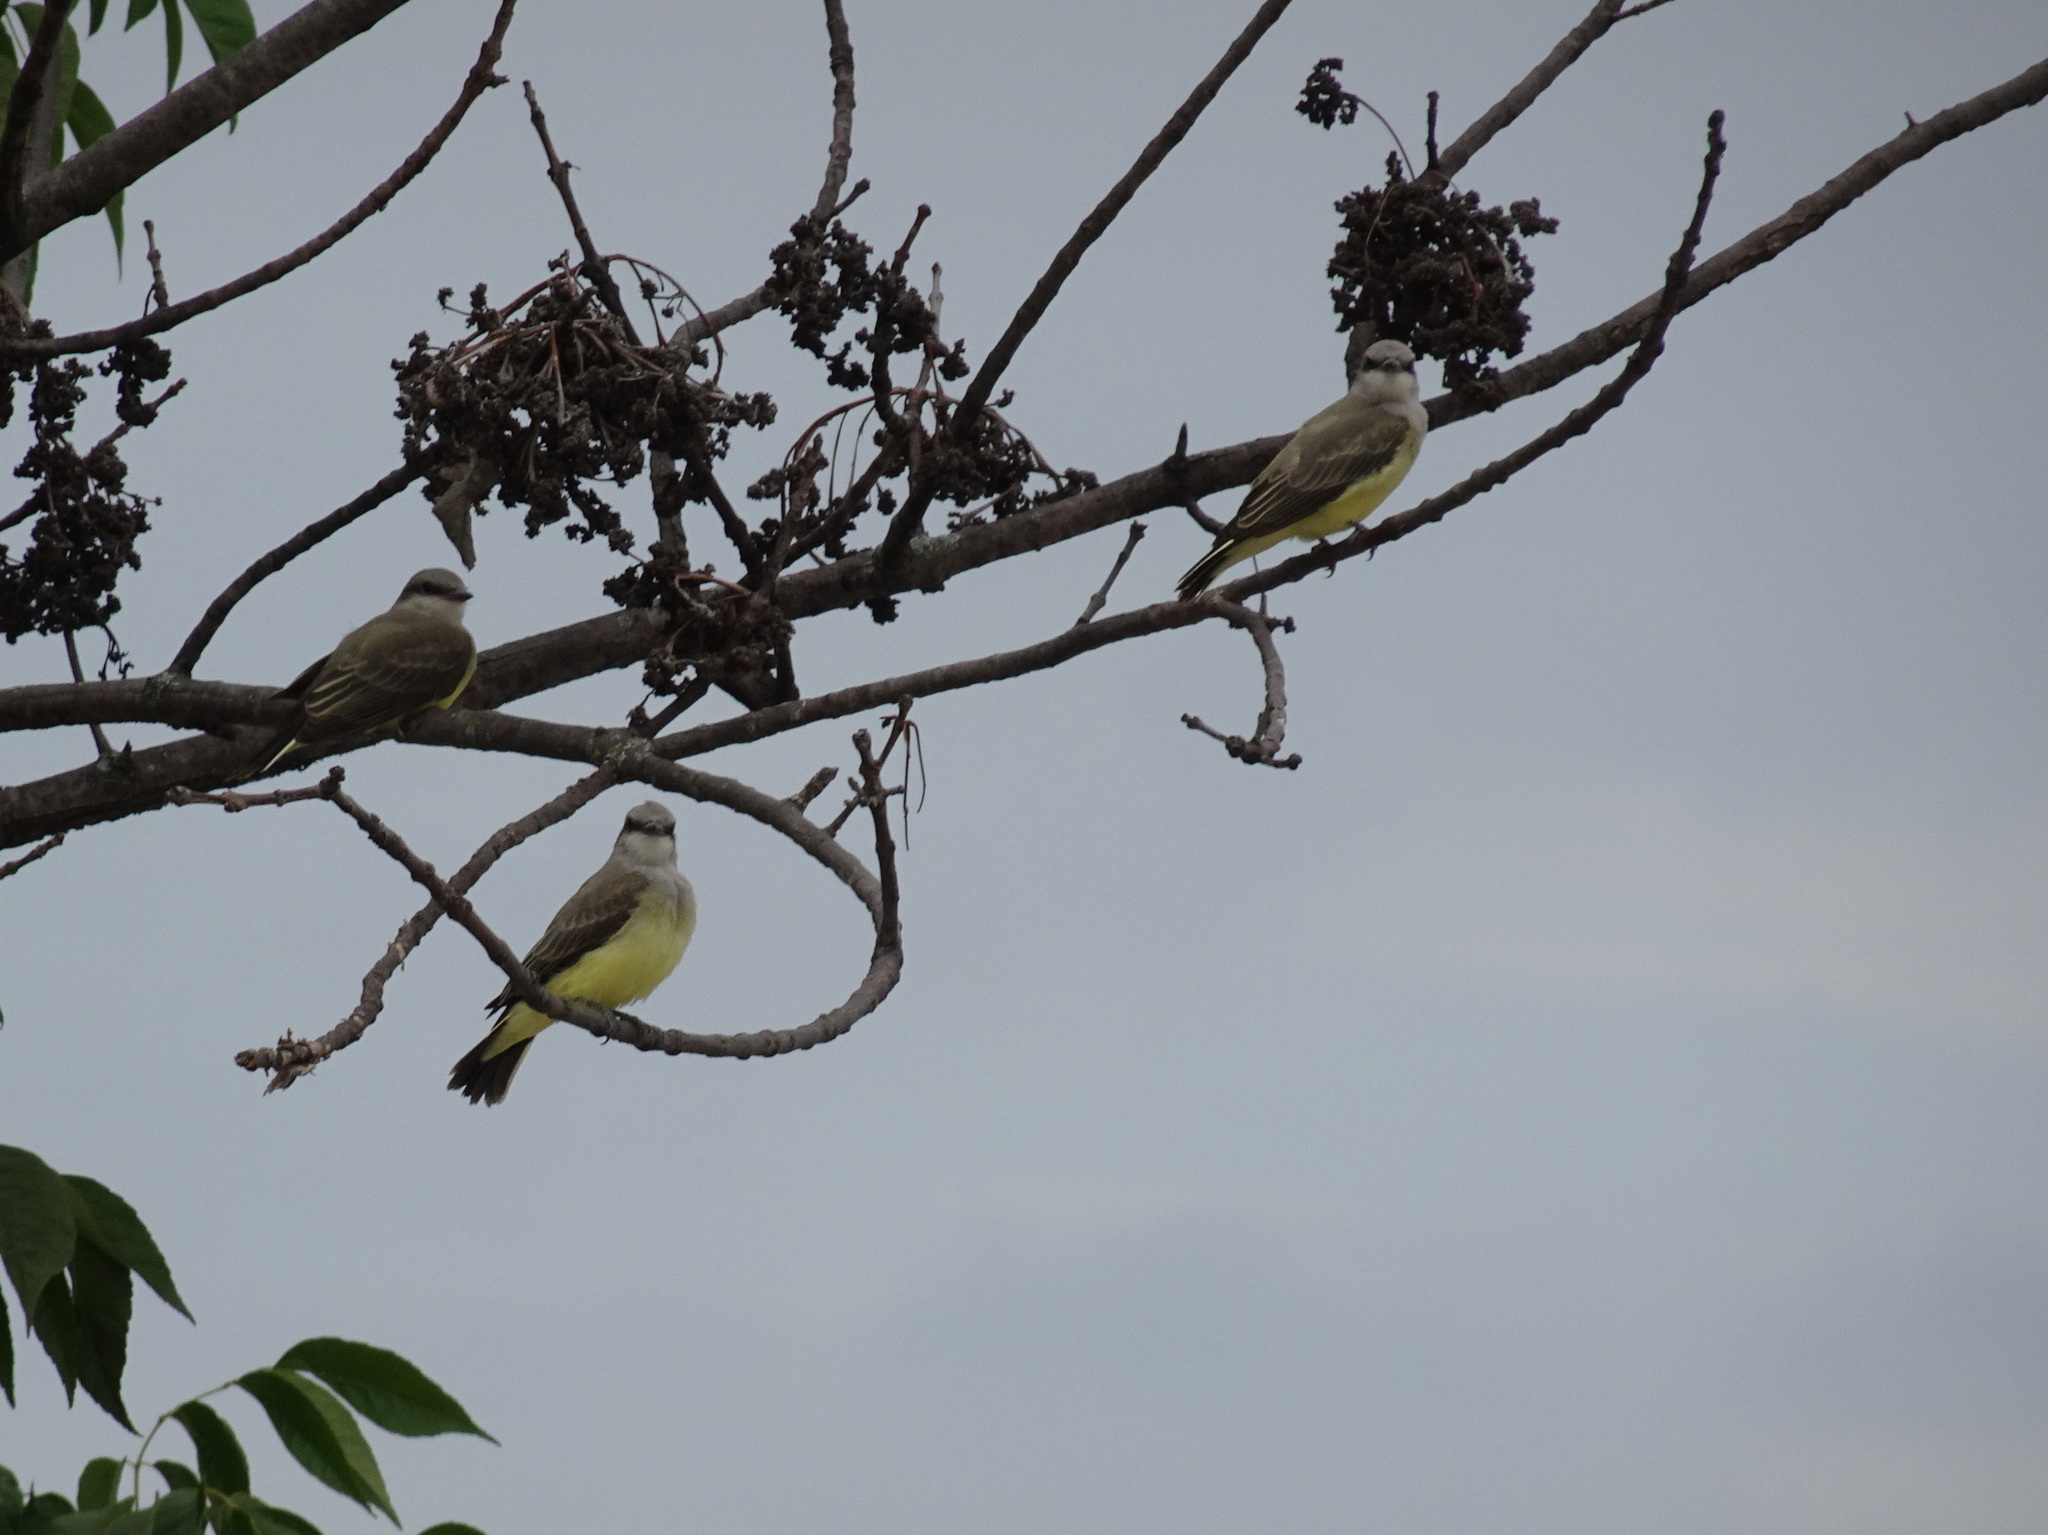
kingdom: Animalia
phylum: Chordata
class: Aves
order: Passeriformes
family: Tyrannidae
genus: Tyrannus
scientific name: Tyrannus verticalis
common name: Western kingbird
